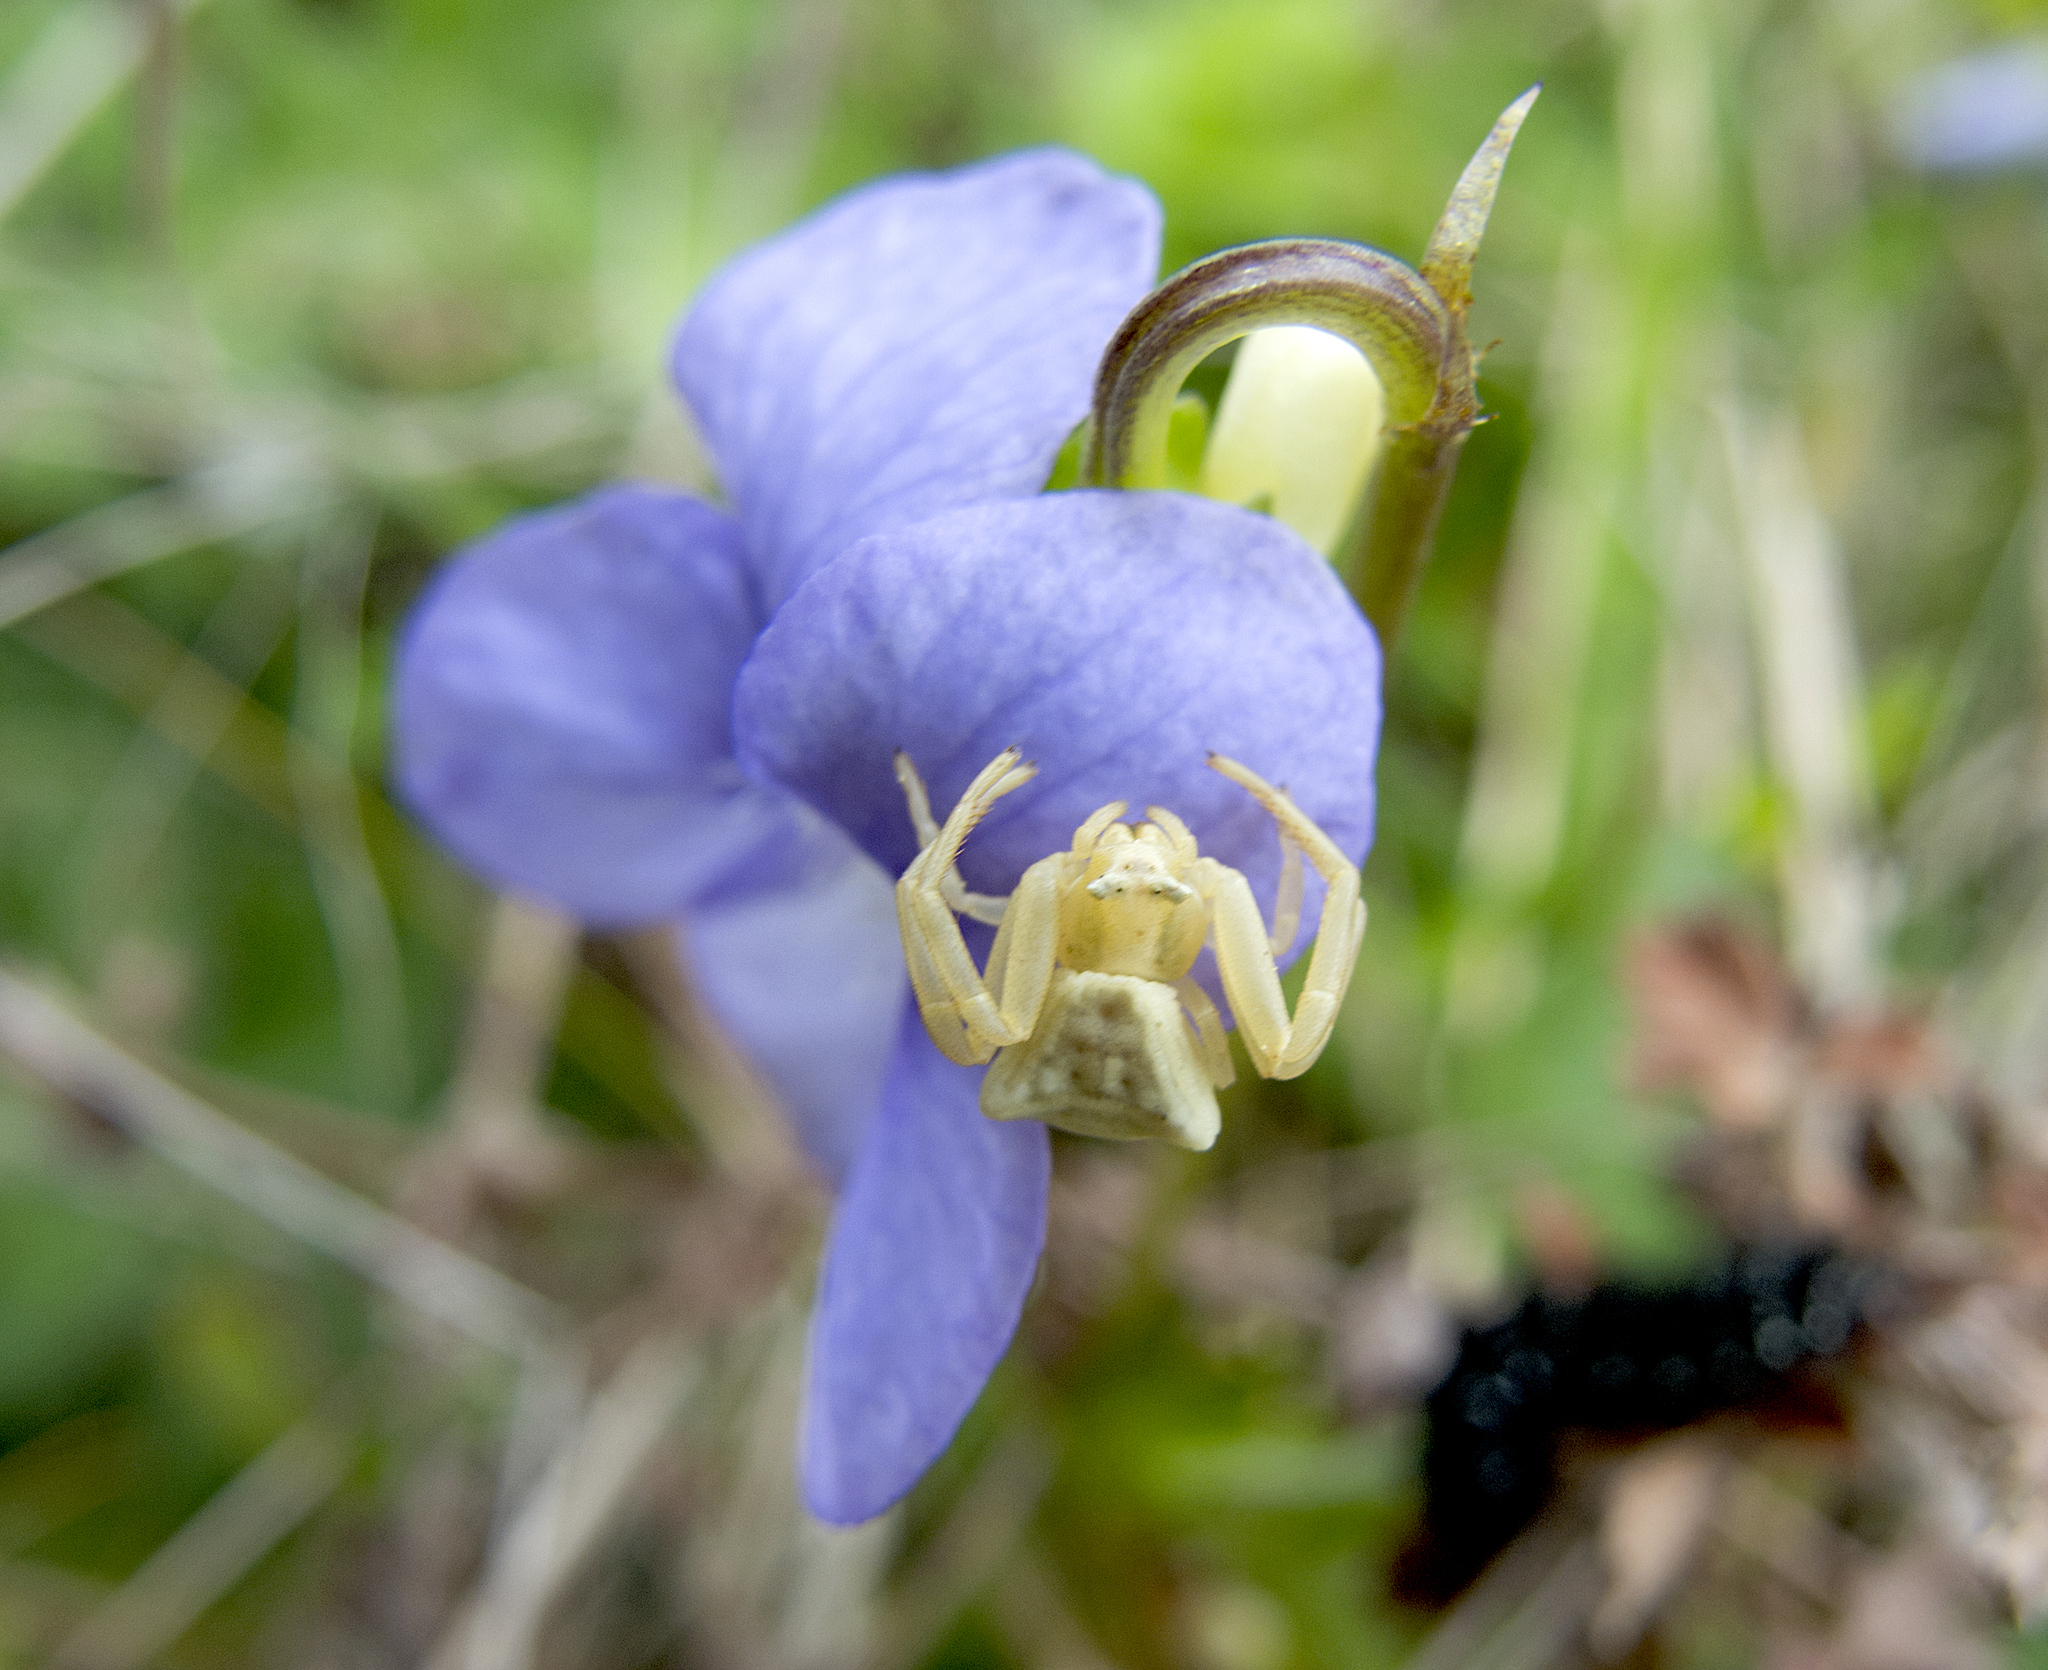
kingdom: Animalia
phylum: Arthropoda
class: Arachnida
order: Araneae
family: Thomisidae
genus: Thomisus
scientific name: Thomisus onustus
